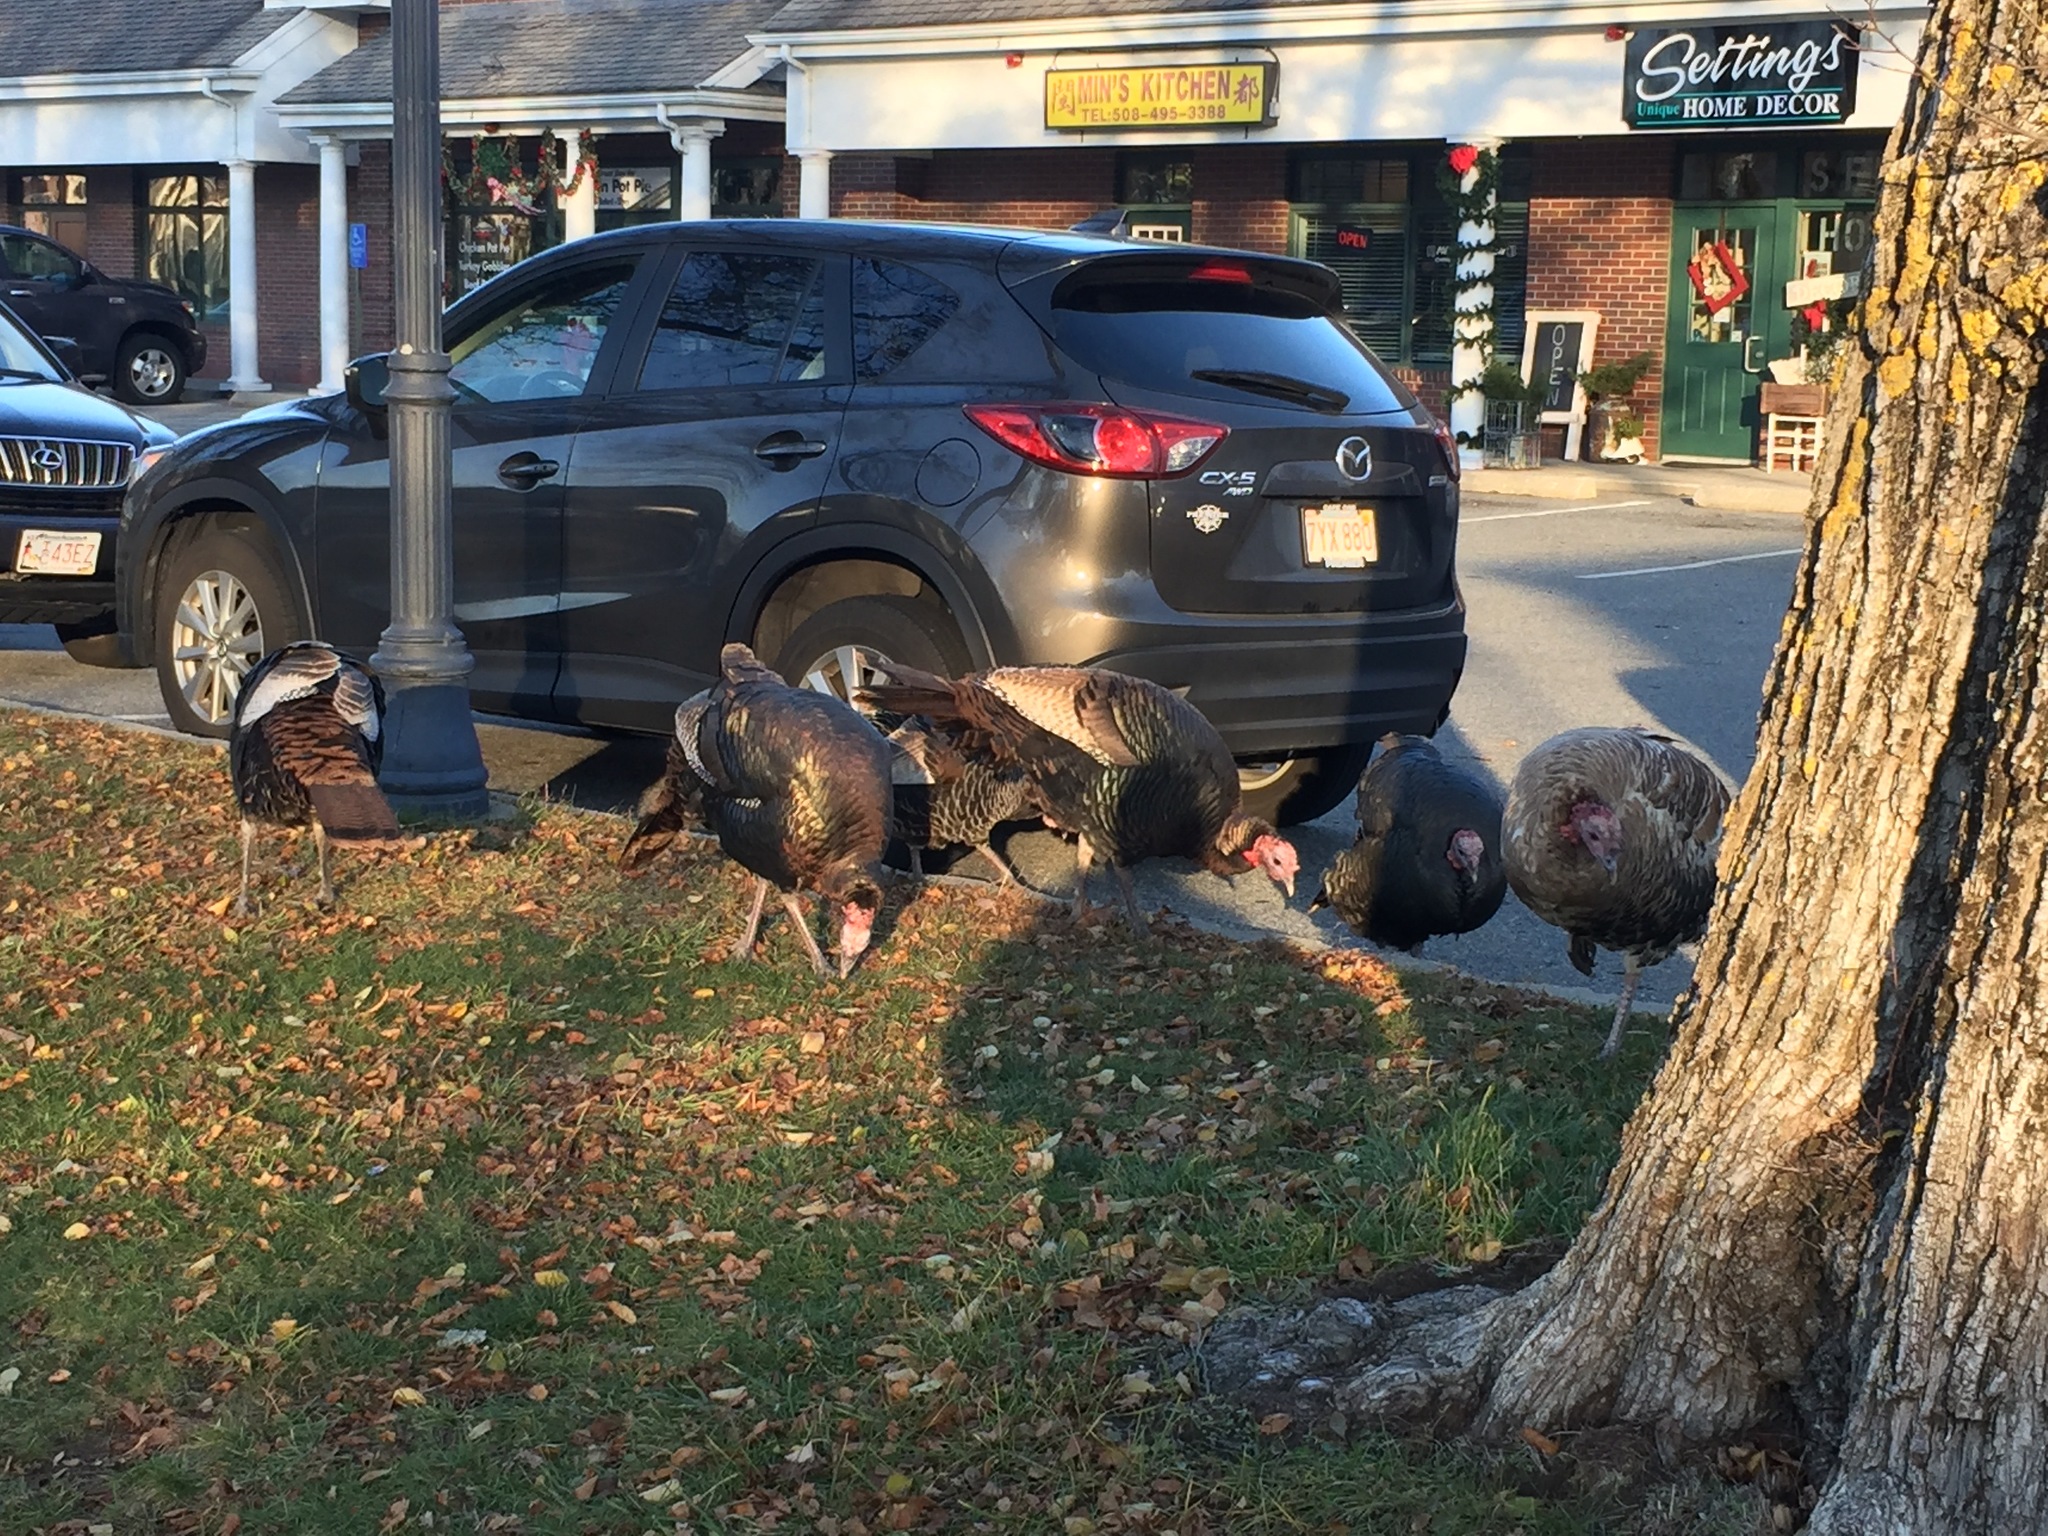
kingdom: Animalia
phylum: Chordata
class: Aves
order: Galliformes
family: Phasianidae
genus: Meleagris
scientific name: Meleagris gallopavo
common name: Wild turkey
